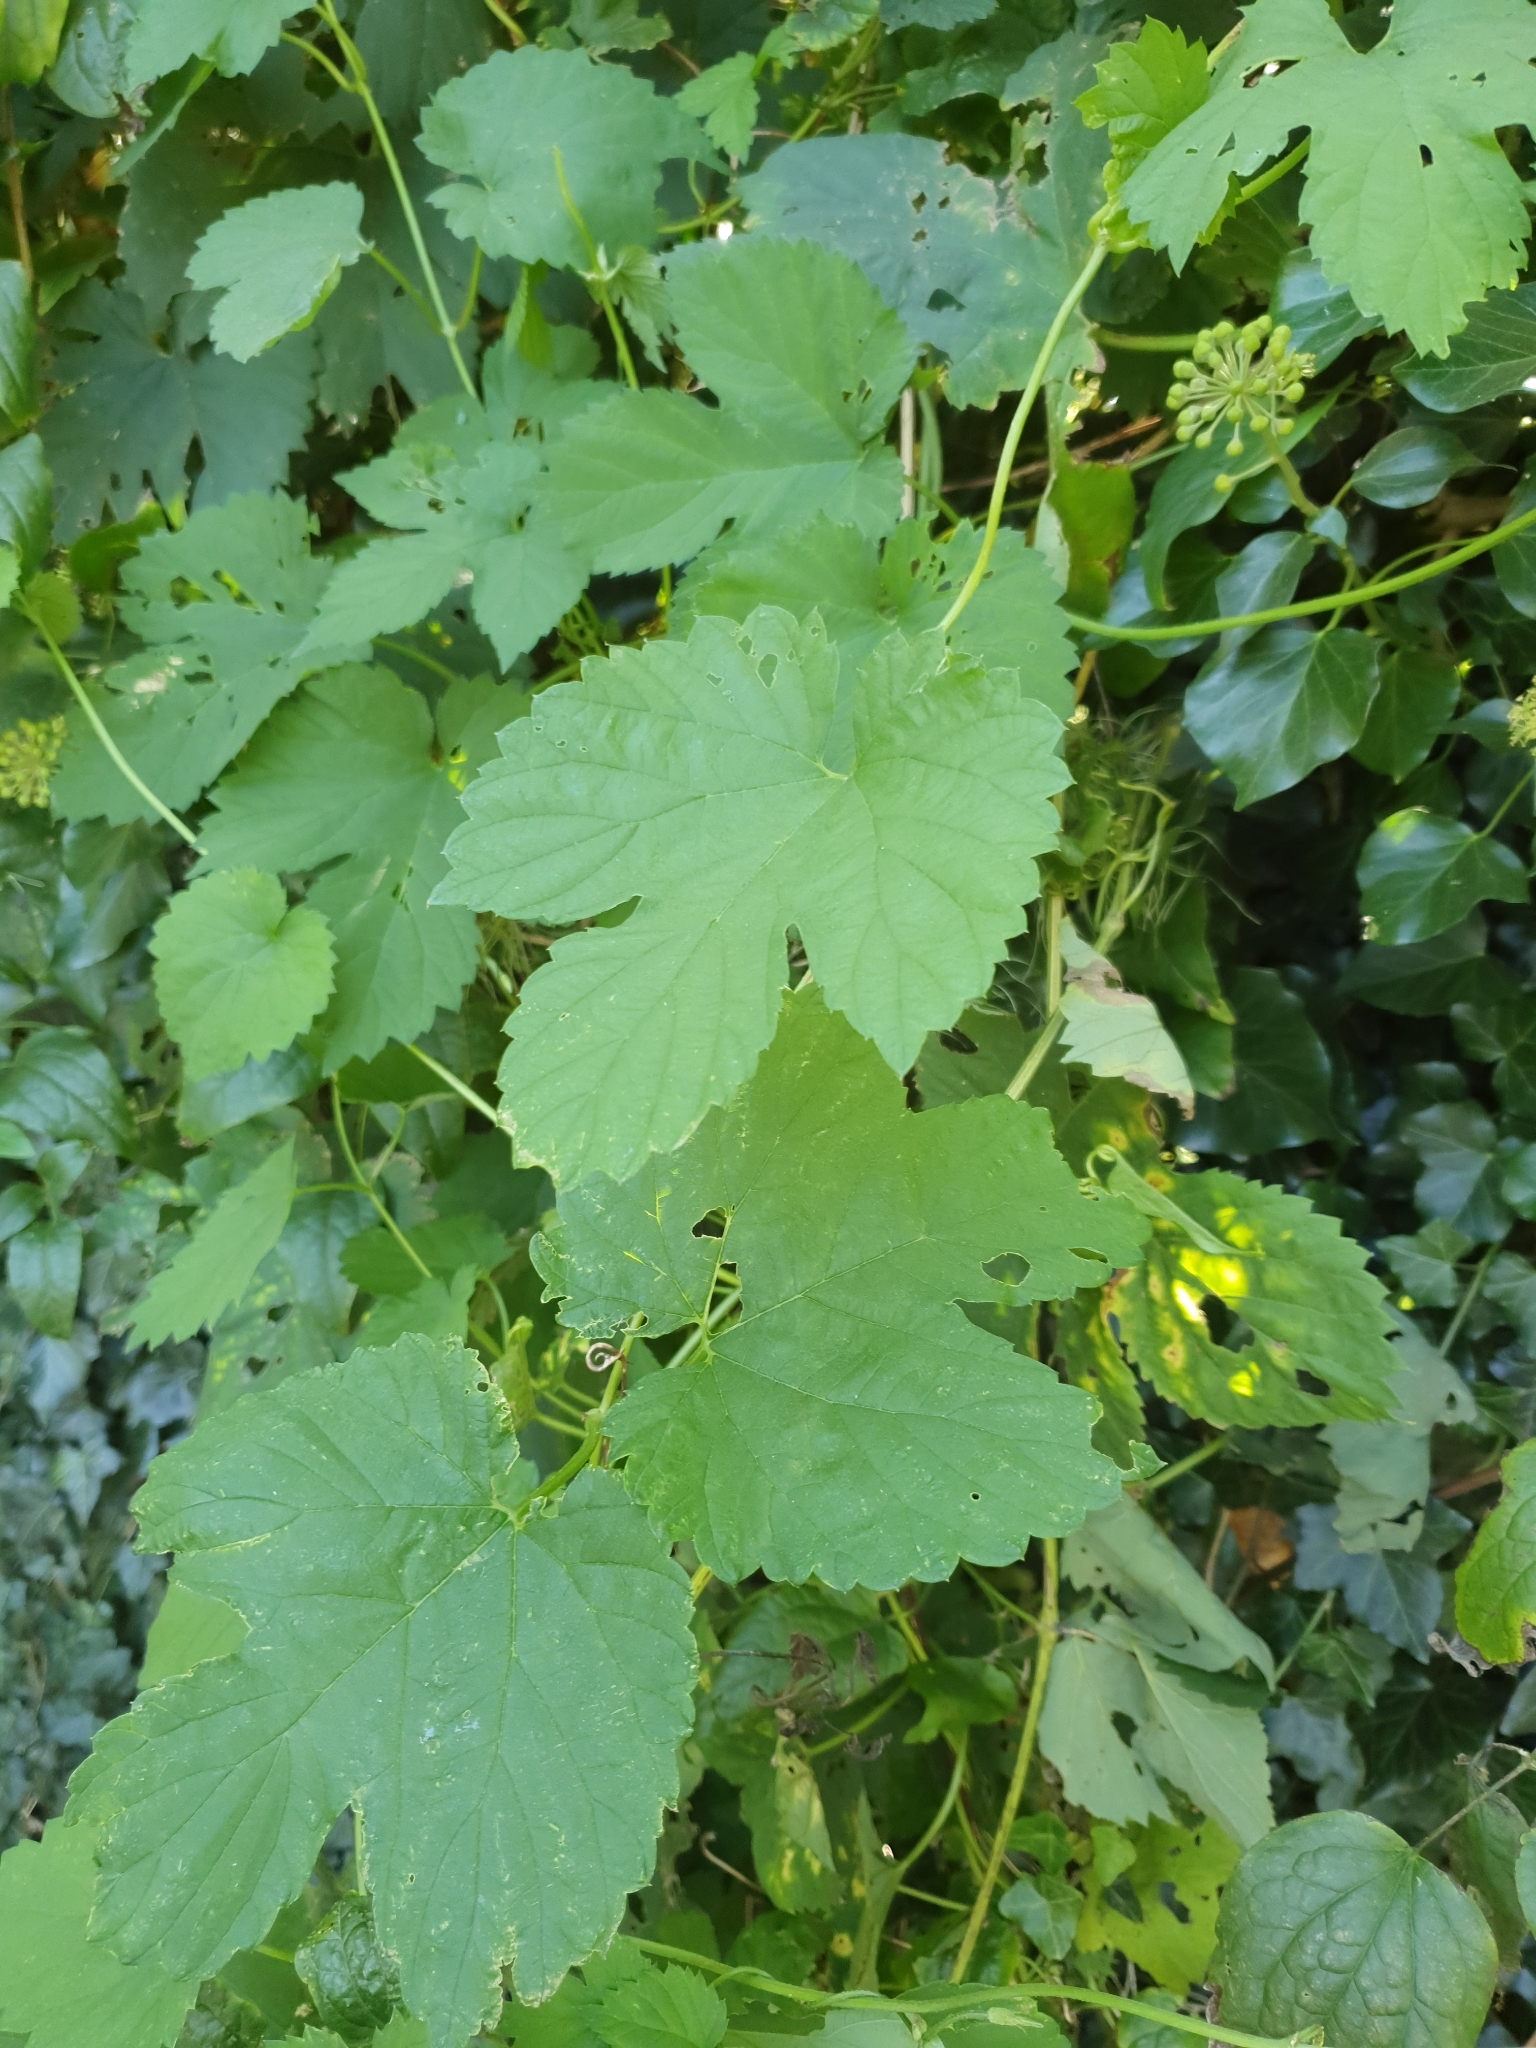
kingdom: Plantae
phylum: Tracheophyta
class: Magnoliopsida
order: Rosales
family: Cannabaceae
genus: Humulus
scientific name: Humulus lupulus
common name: Hop
